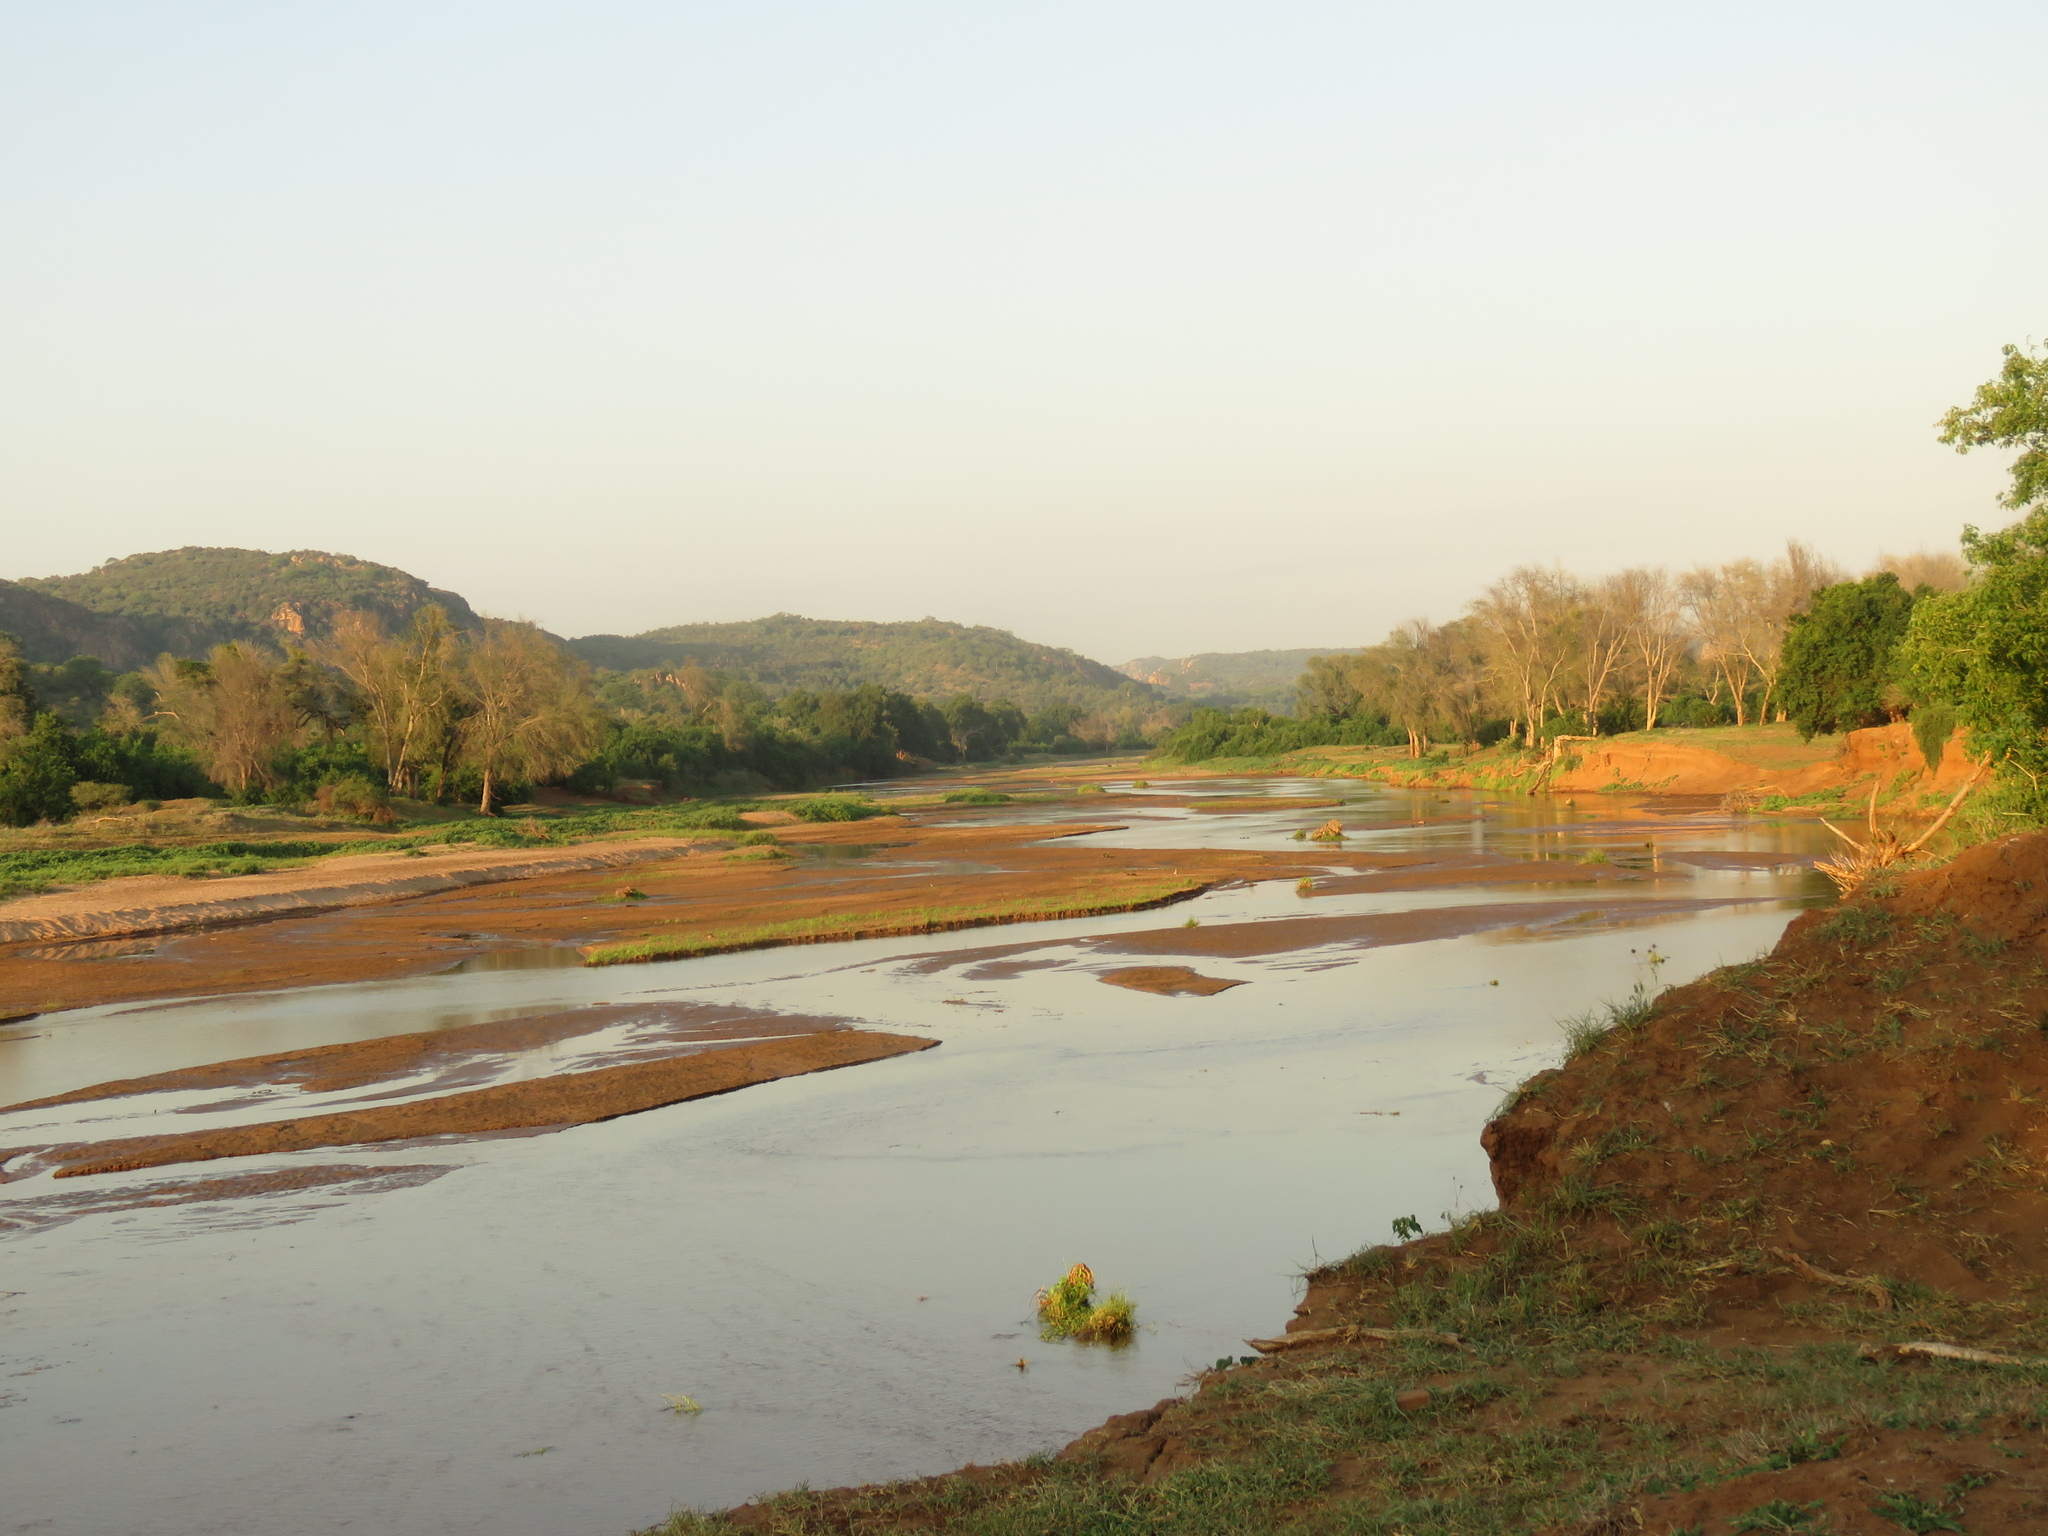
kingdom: Plantae
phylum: Tracheophyta
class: Magnoliopsida
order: Fabales
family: Fabaceae
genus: Vachellia
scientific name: Vachellia xanthophloea
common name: Fever tree
